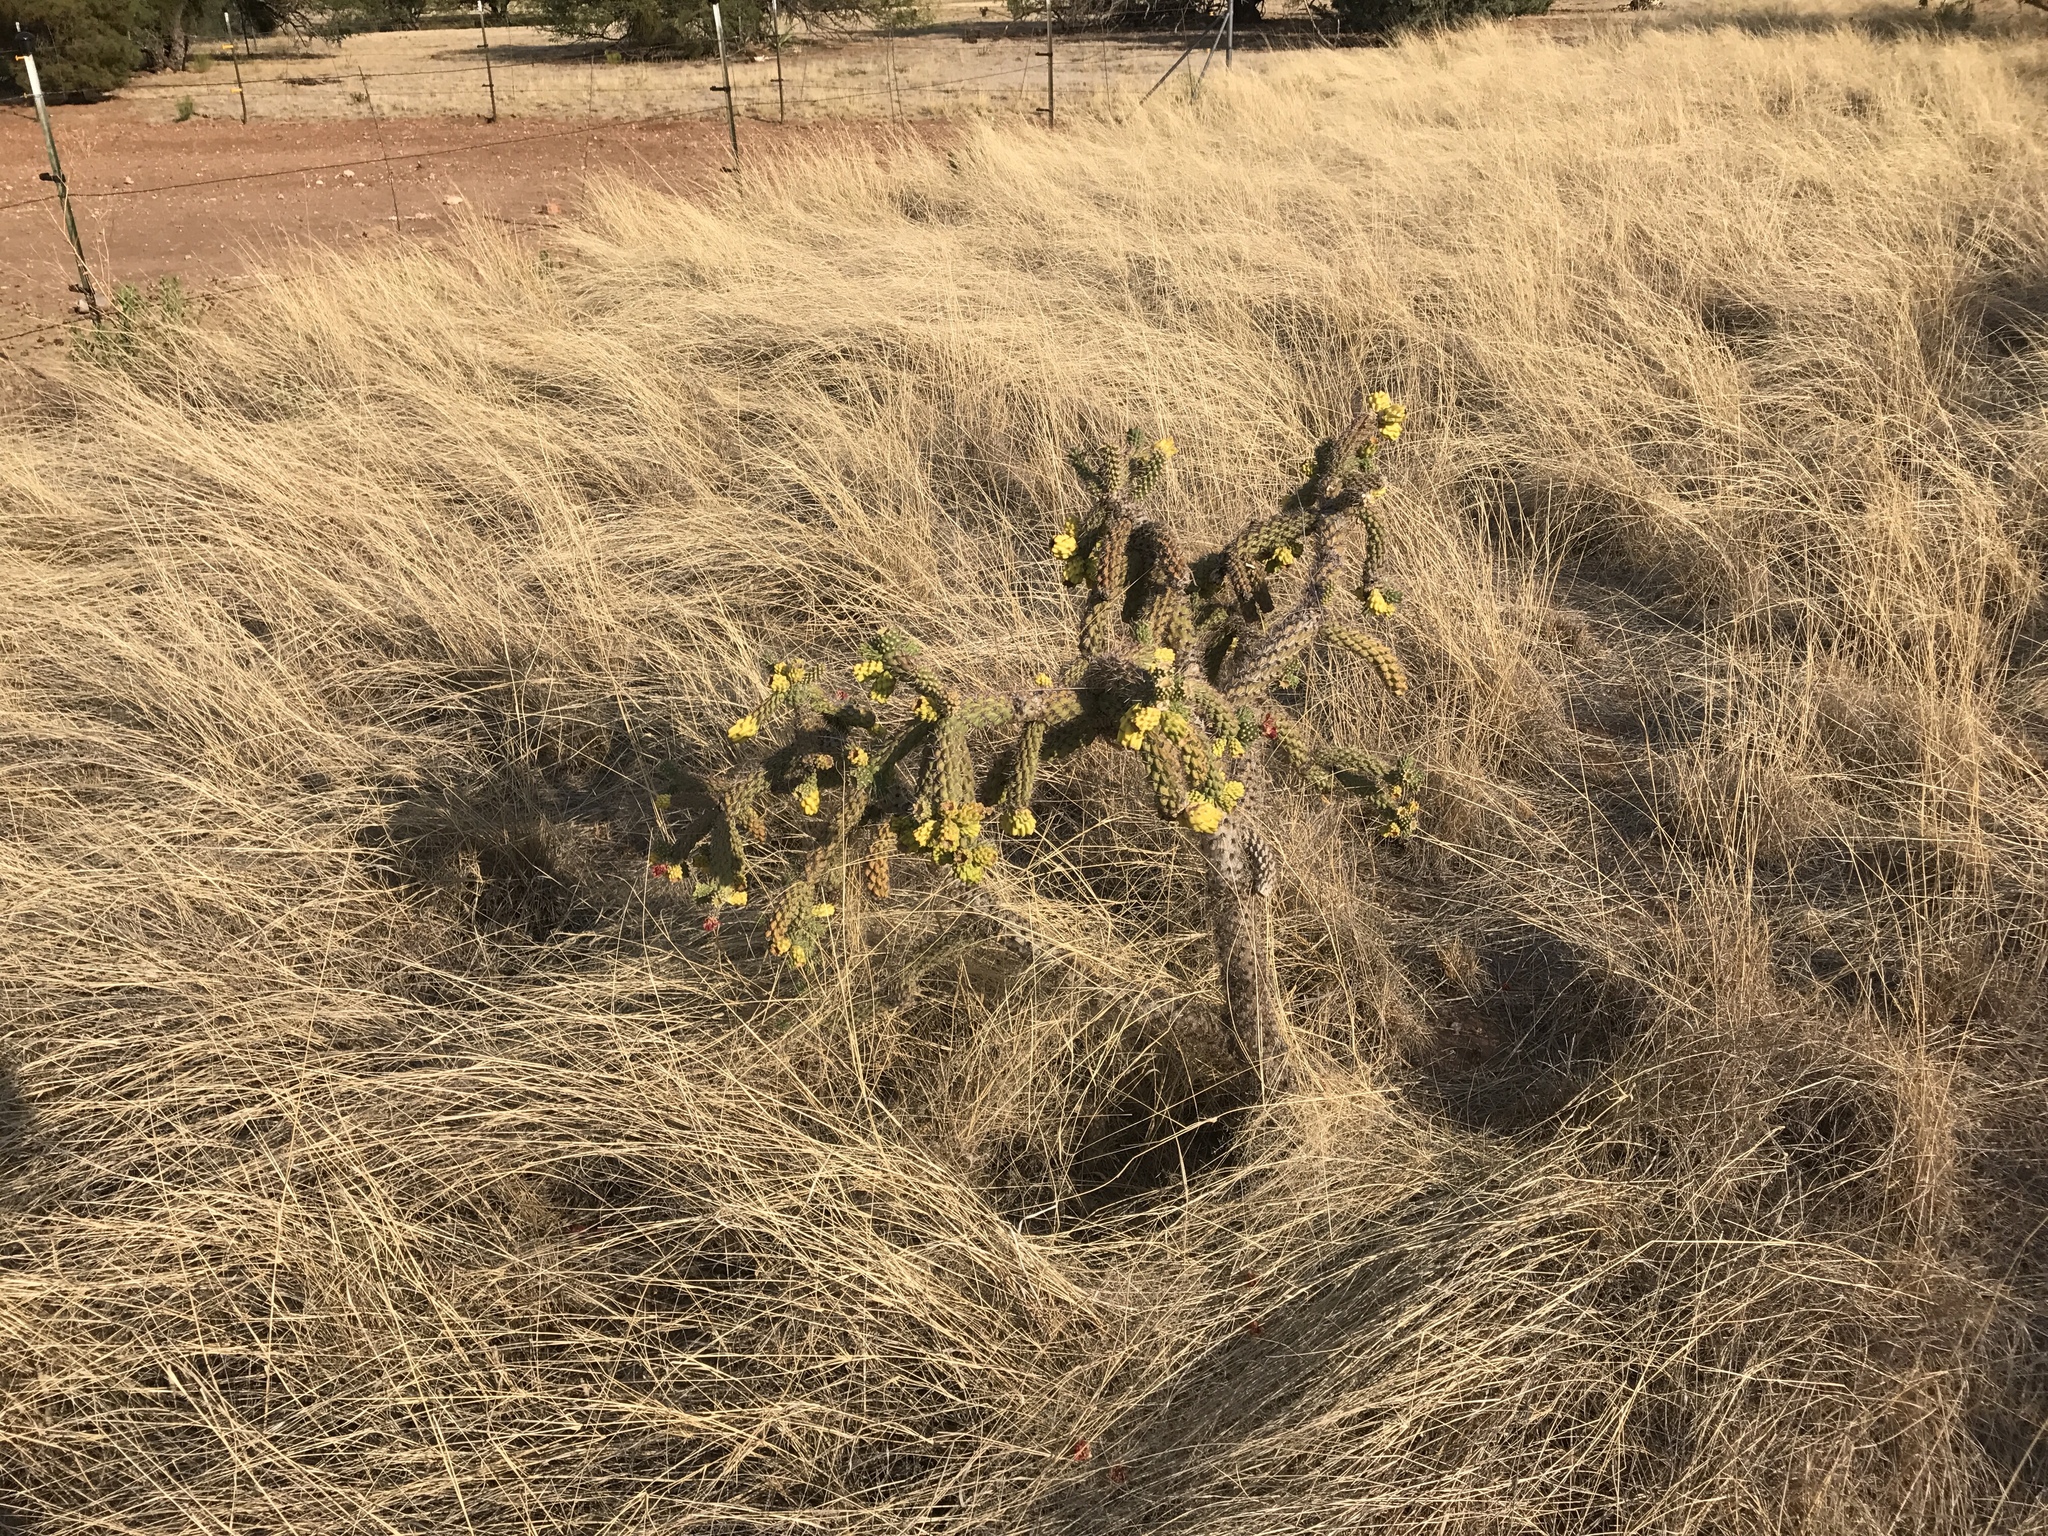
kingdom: Plantae
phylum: Tracheophyta
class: Magnoliopsida
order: Caryophyllales
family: Cactaceae
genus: Cylindropuntia
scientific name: Cylindropuntia imbricata
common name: Candelabrum cactus
